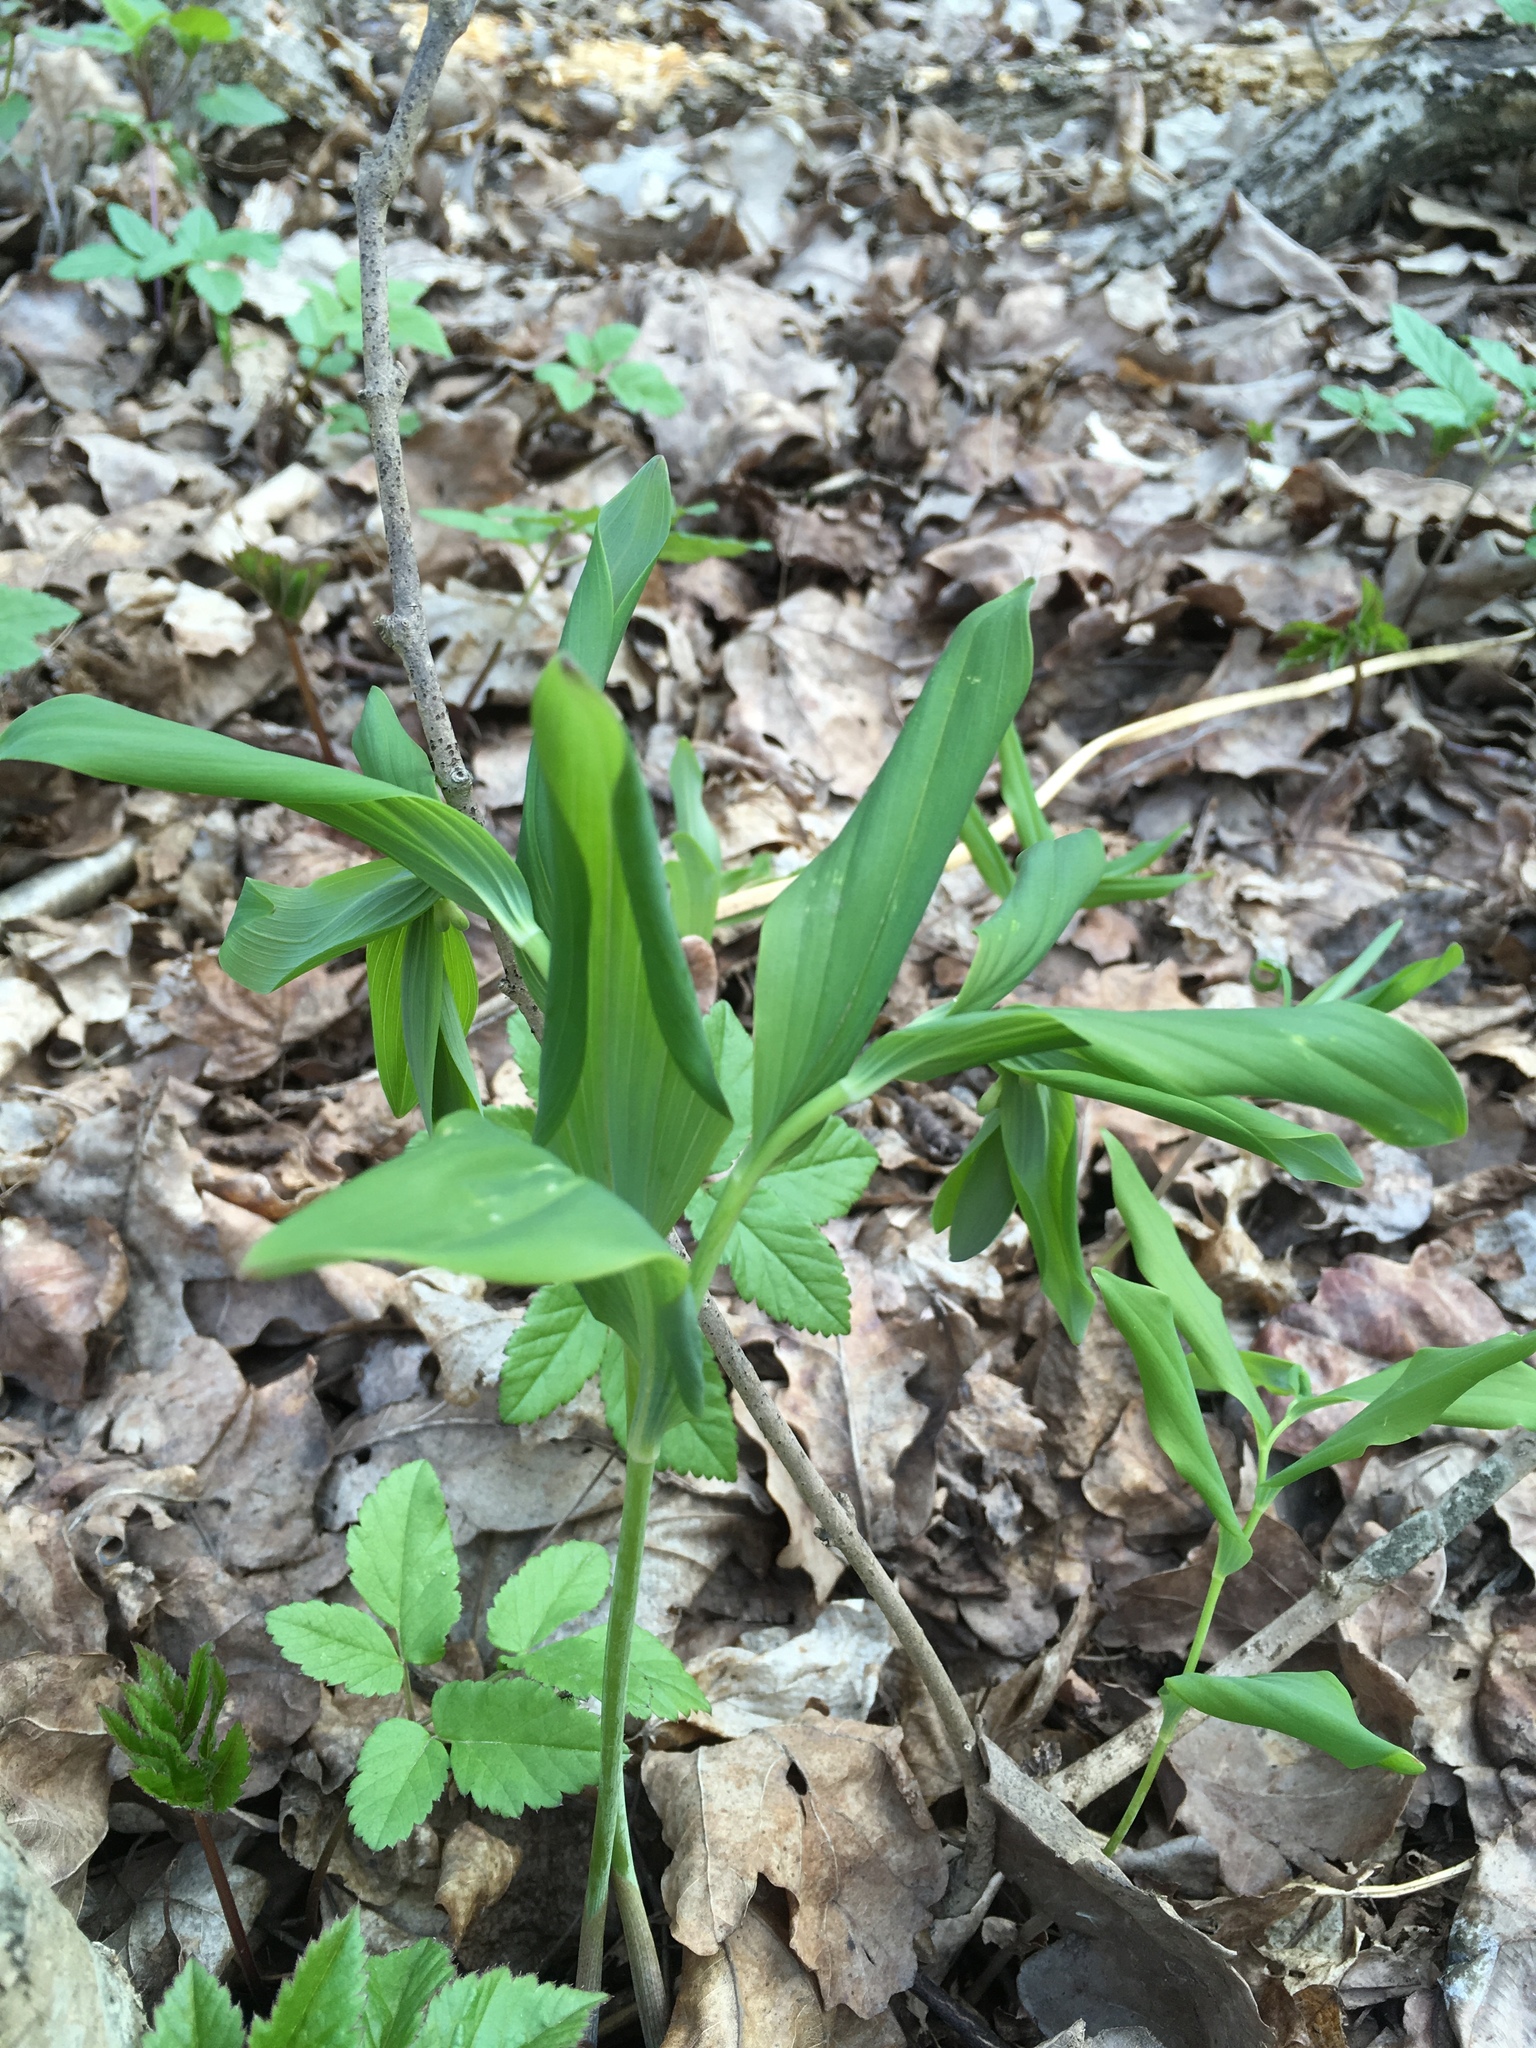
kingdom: Plantae
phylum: Tracheophyta
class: Liliopsida
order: Asparagales
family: Asparagaceae
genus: Polygonatum
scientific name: Polygonatum multiflorum
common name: Solomon's-seal
